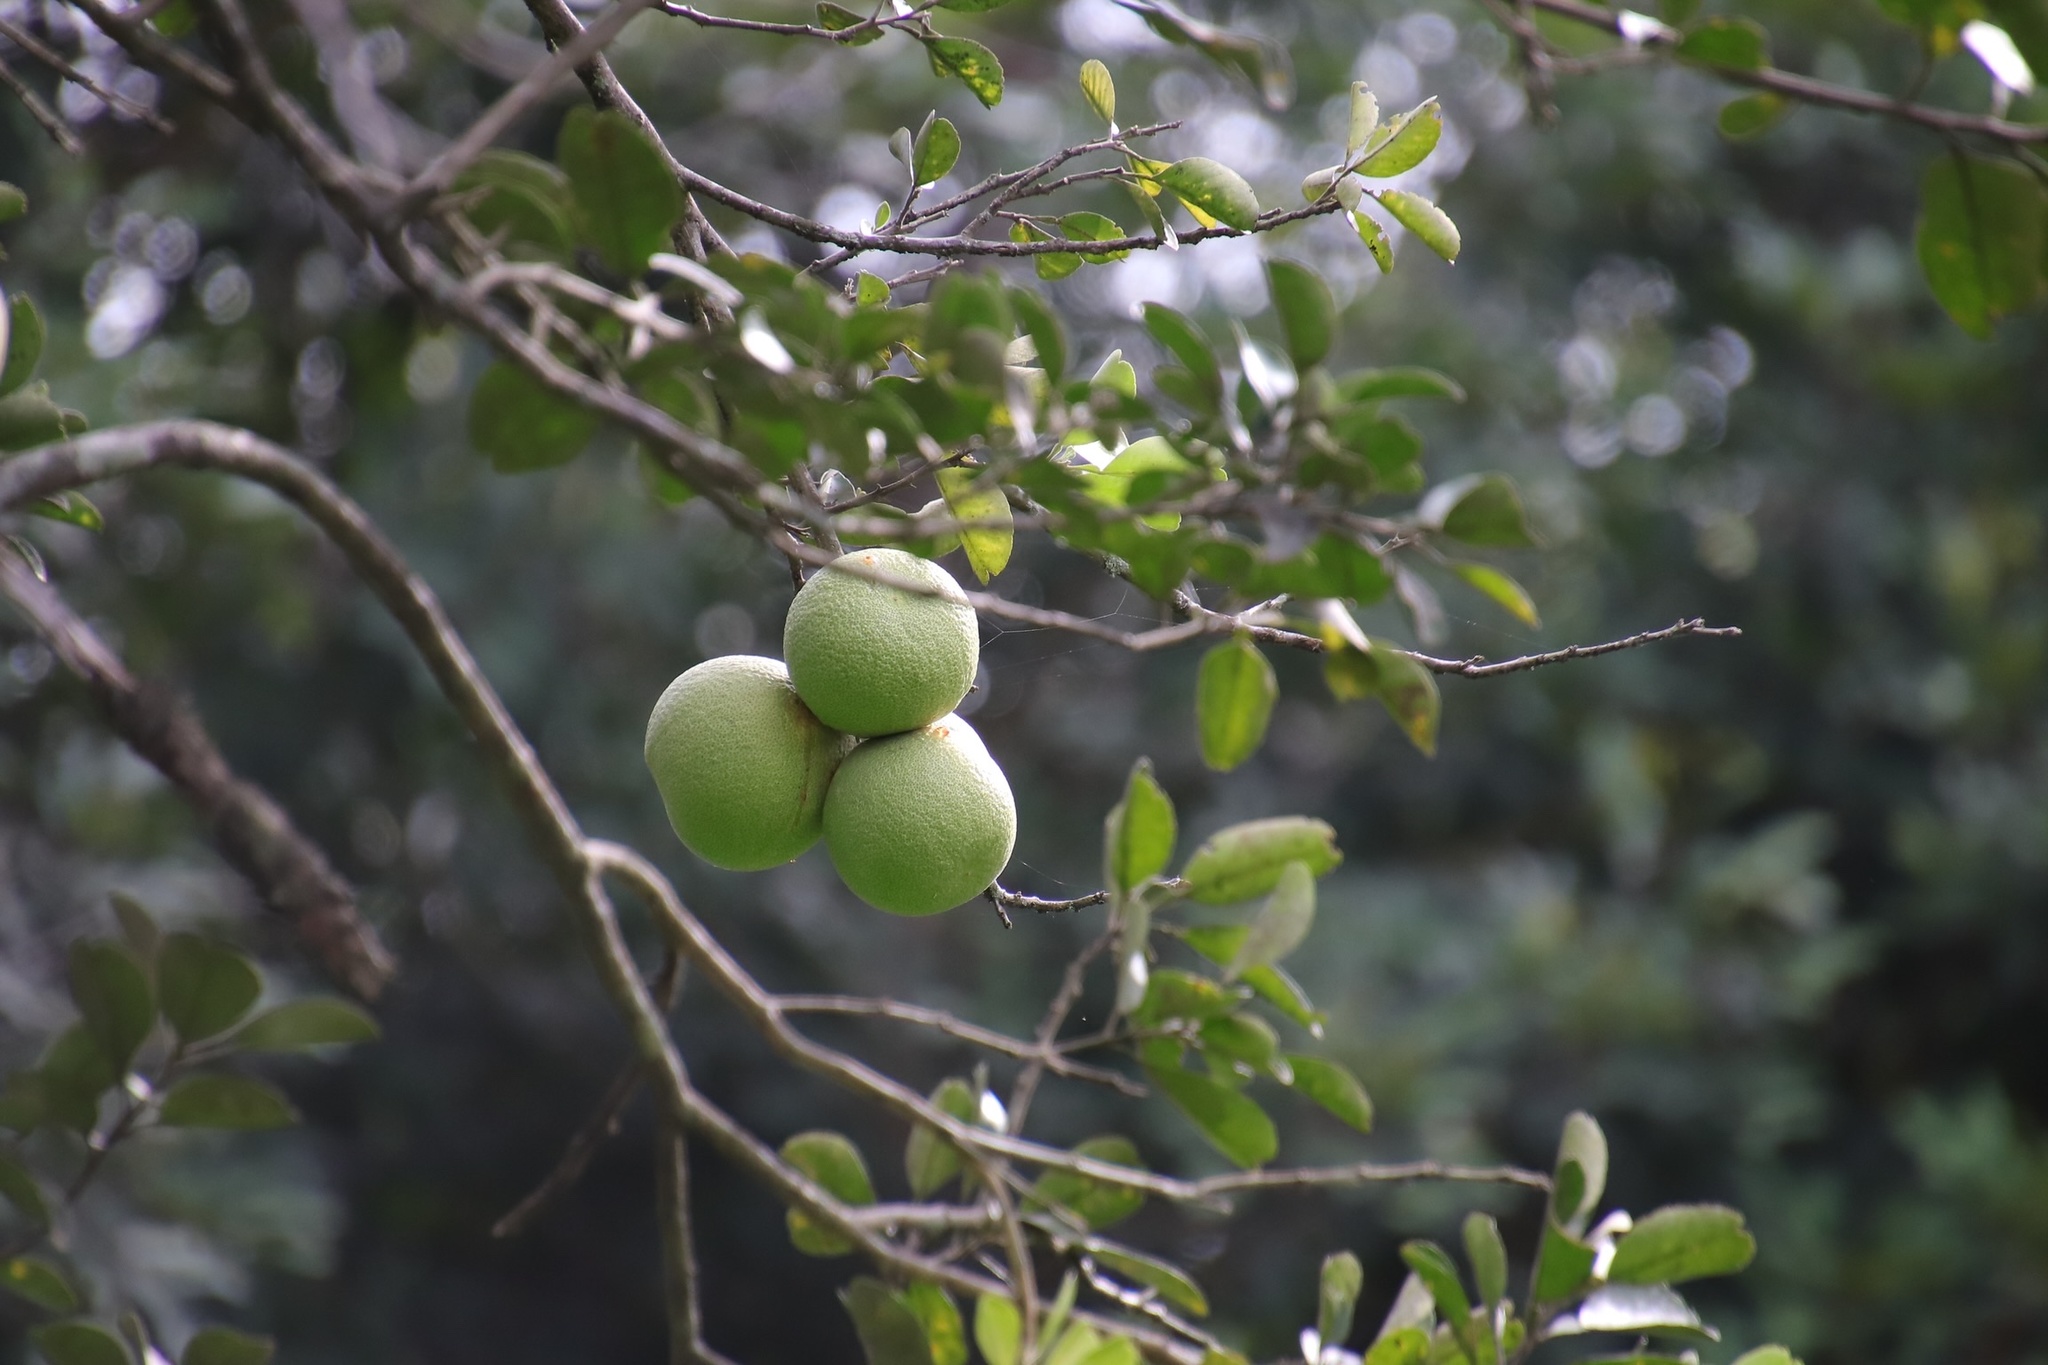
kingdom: Plantae
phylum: Tracheophyta
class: Magnoliopsida
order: Sapindales
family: Rutaceae
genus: Citrus
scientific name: Citrus maxima
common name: Pomelo
